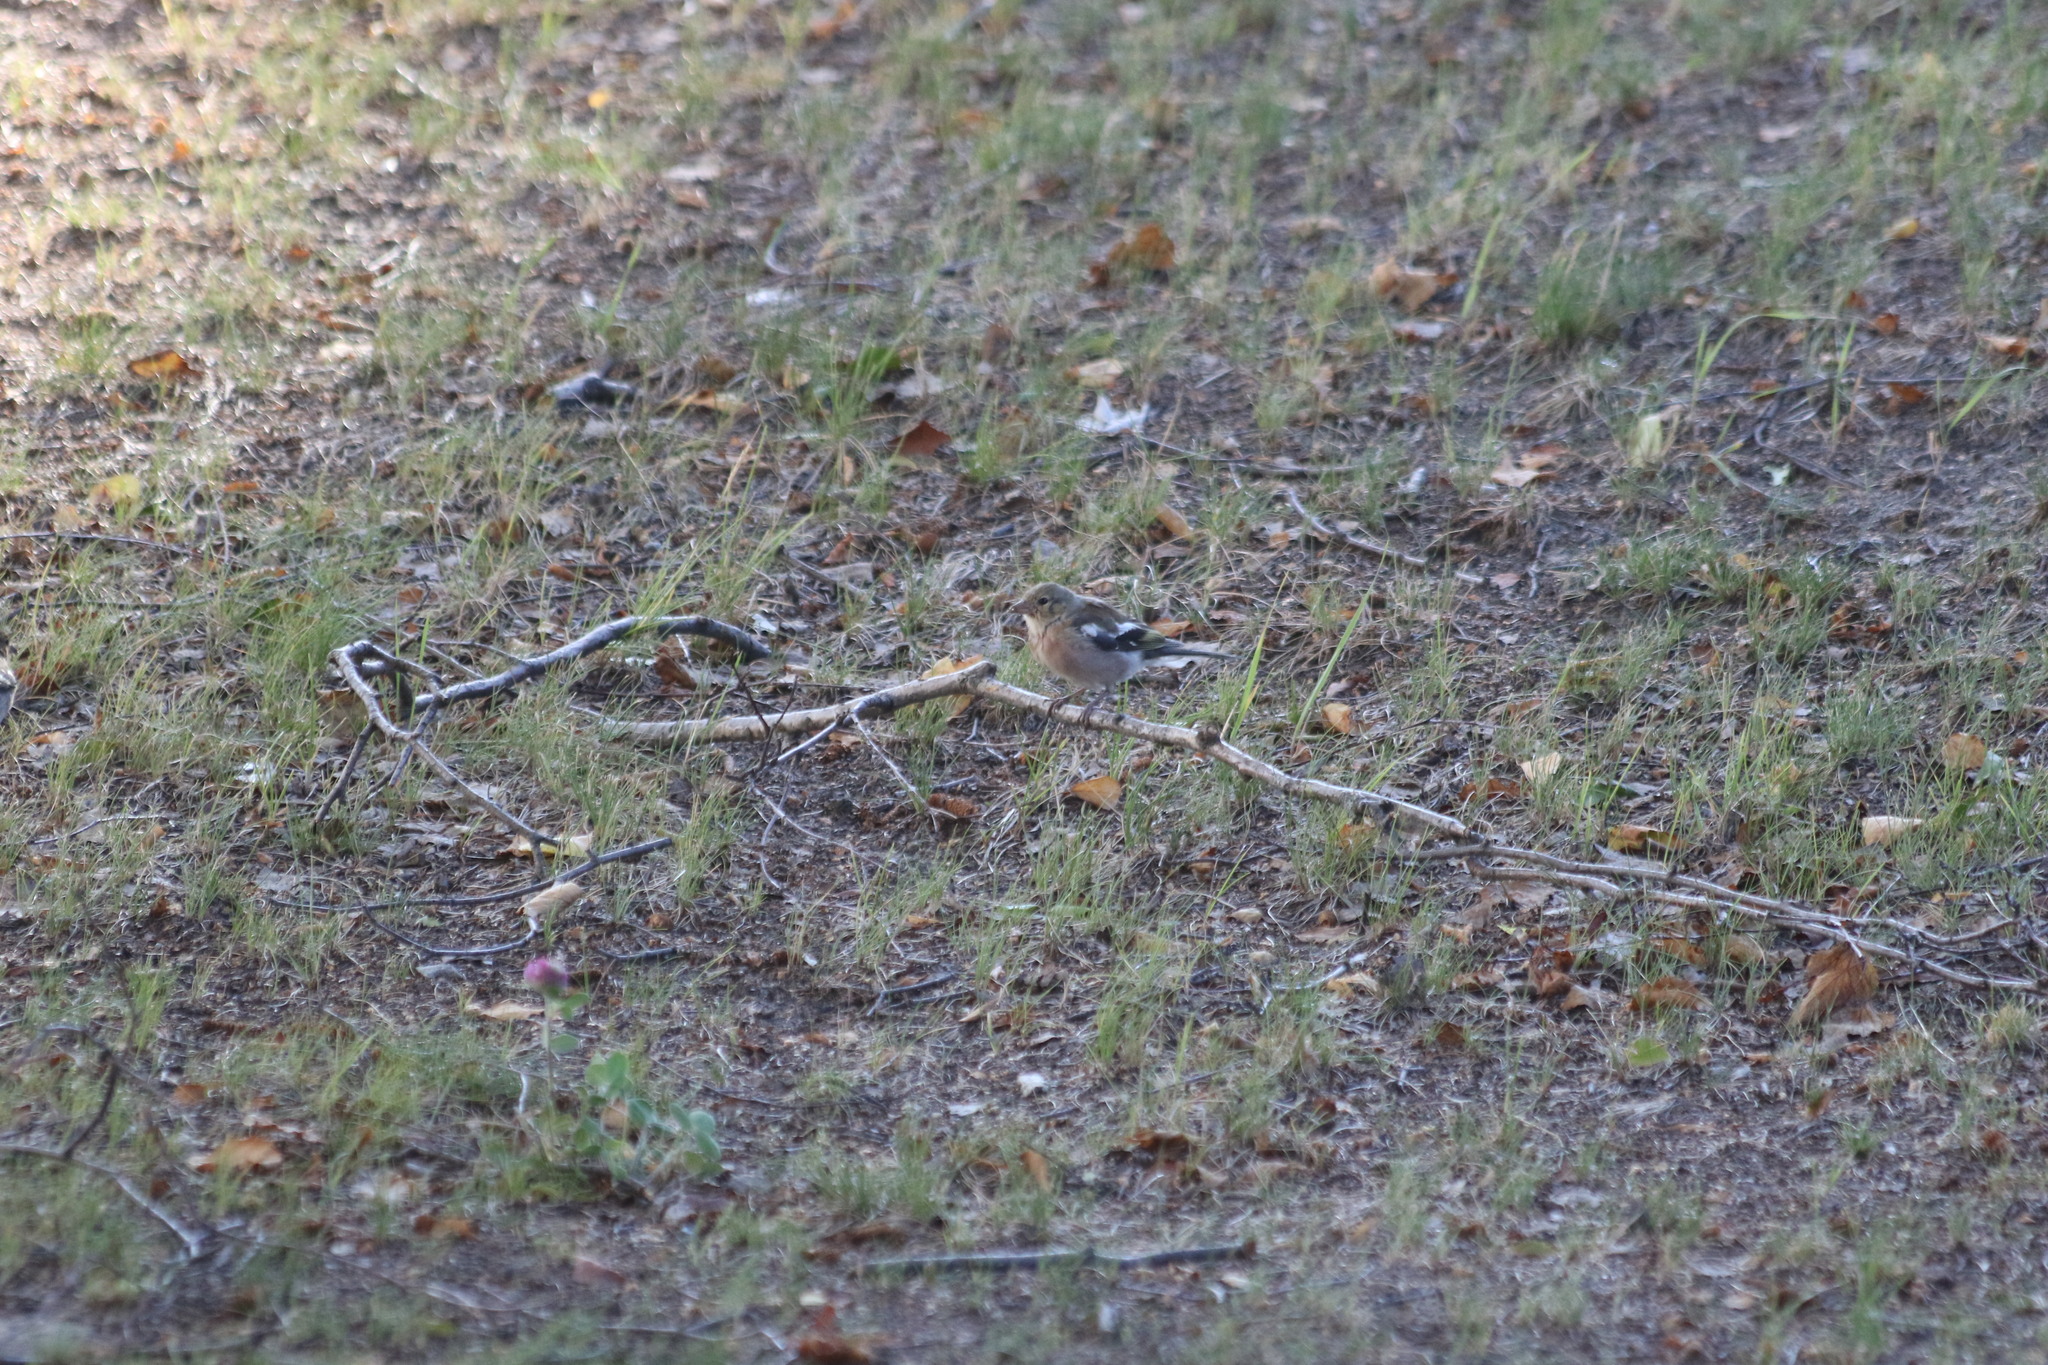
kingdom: Animalia
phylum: Chordata
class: Aves
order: Passeriformes
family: Fringillidae
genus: Fringilla
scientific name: Fringilla coelebs
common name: Common chaffinch
